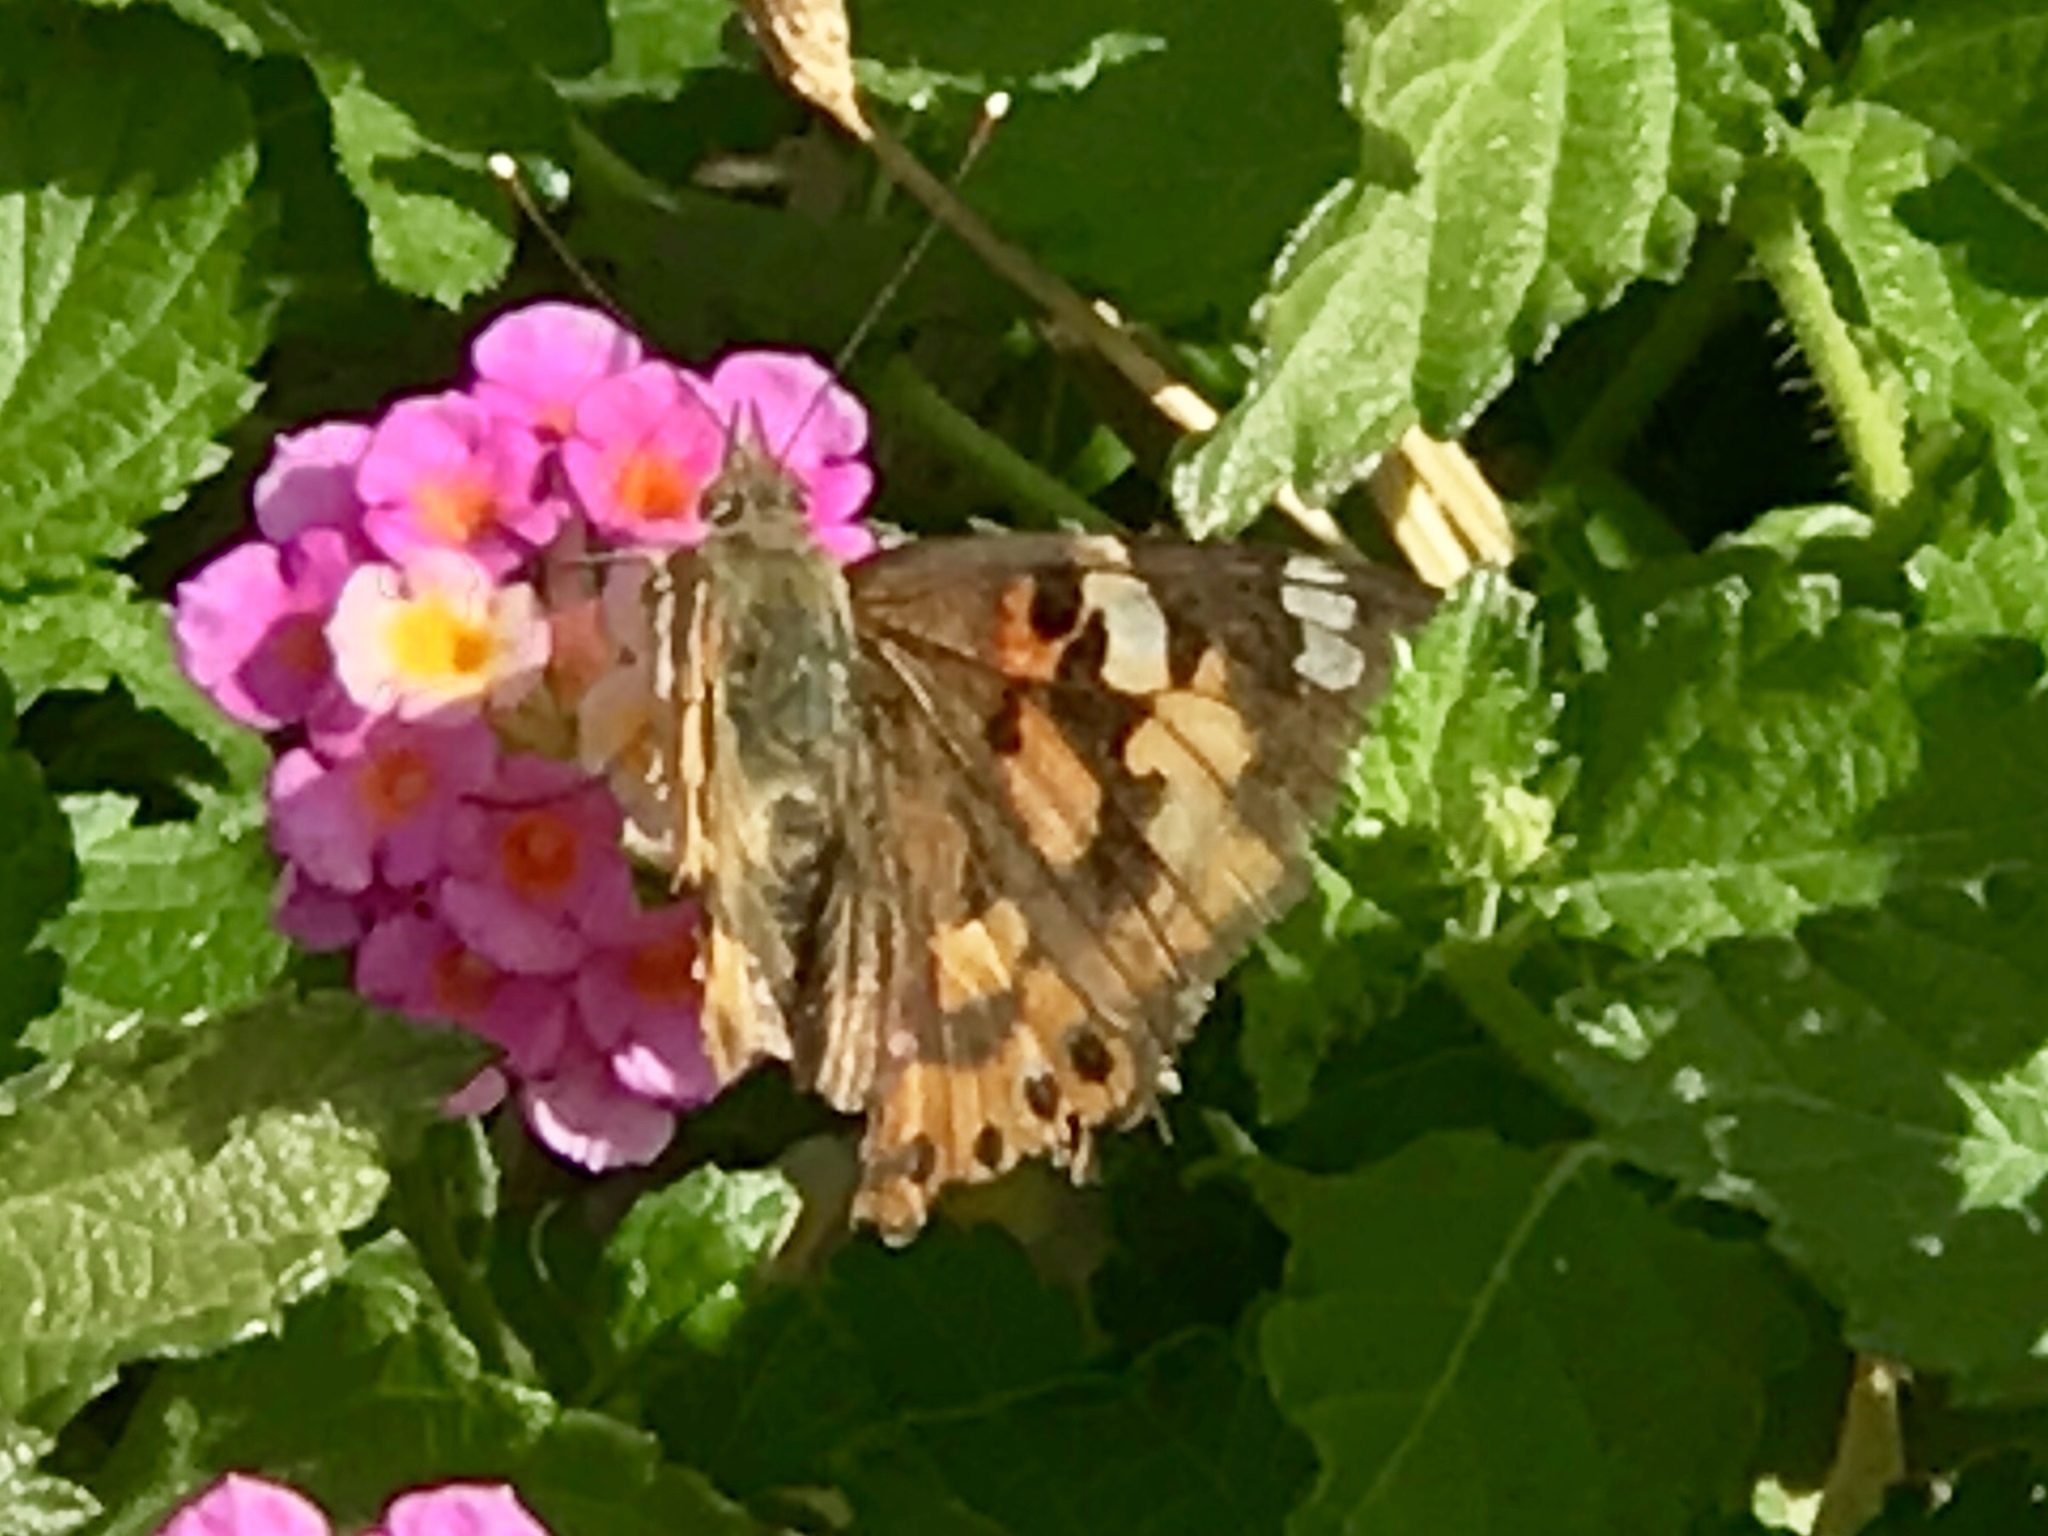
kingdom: Animalia
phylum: Arthropoda
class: Insecta
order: Lepidoptera
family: Nymphalidae
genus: Vanessa
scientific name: Vanessa cardui
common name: Painted lady
